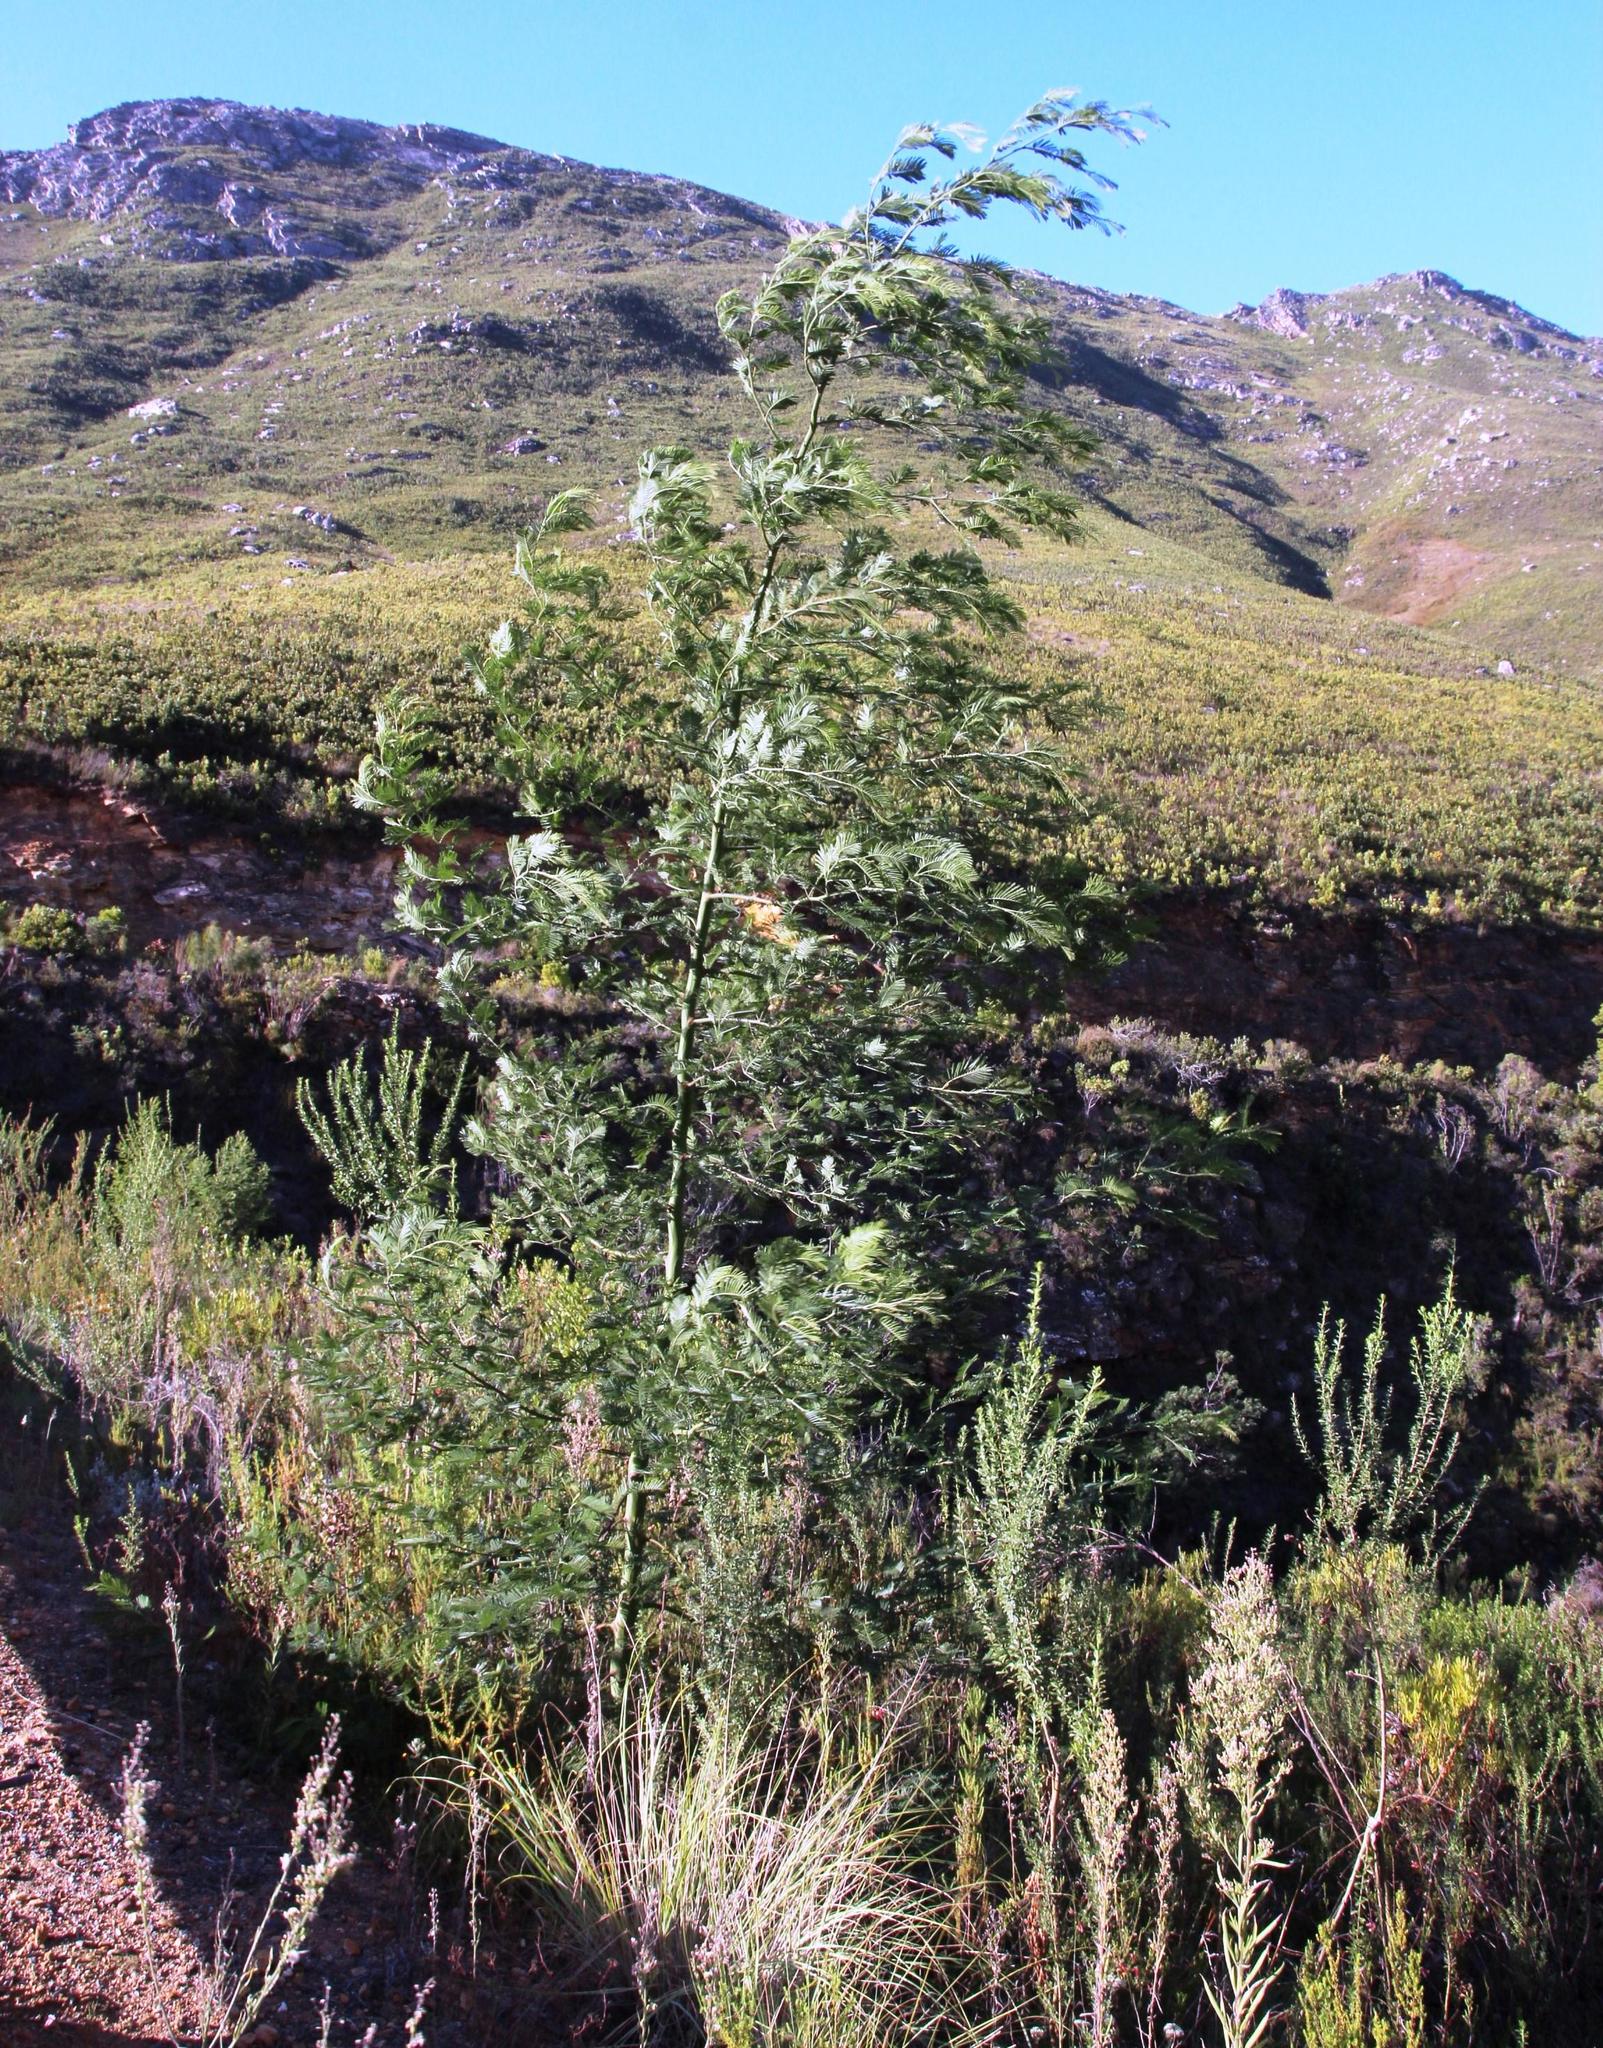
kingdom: Plantae
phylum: Tracheophyta
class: Magnoliopsida
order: Fabales
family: Fabaceae
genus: Acacia
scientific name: Acacia mearnsii
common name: Black wattle
